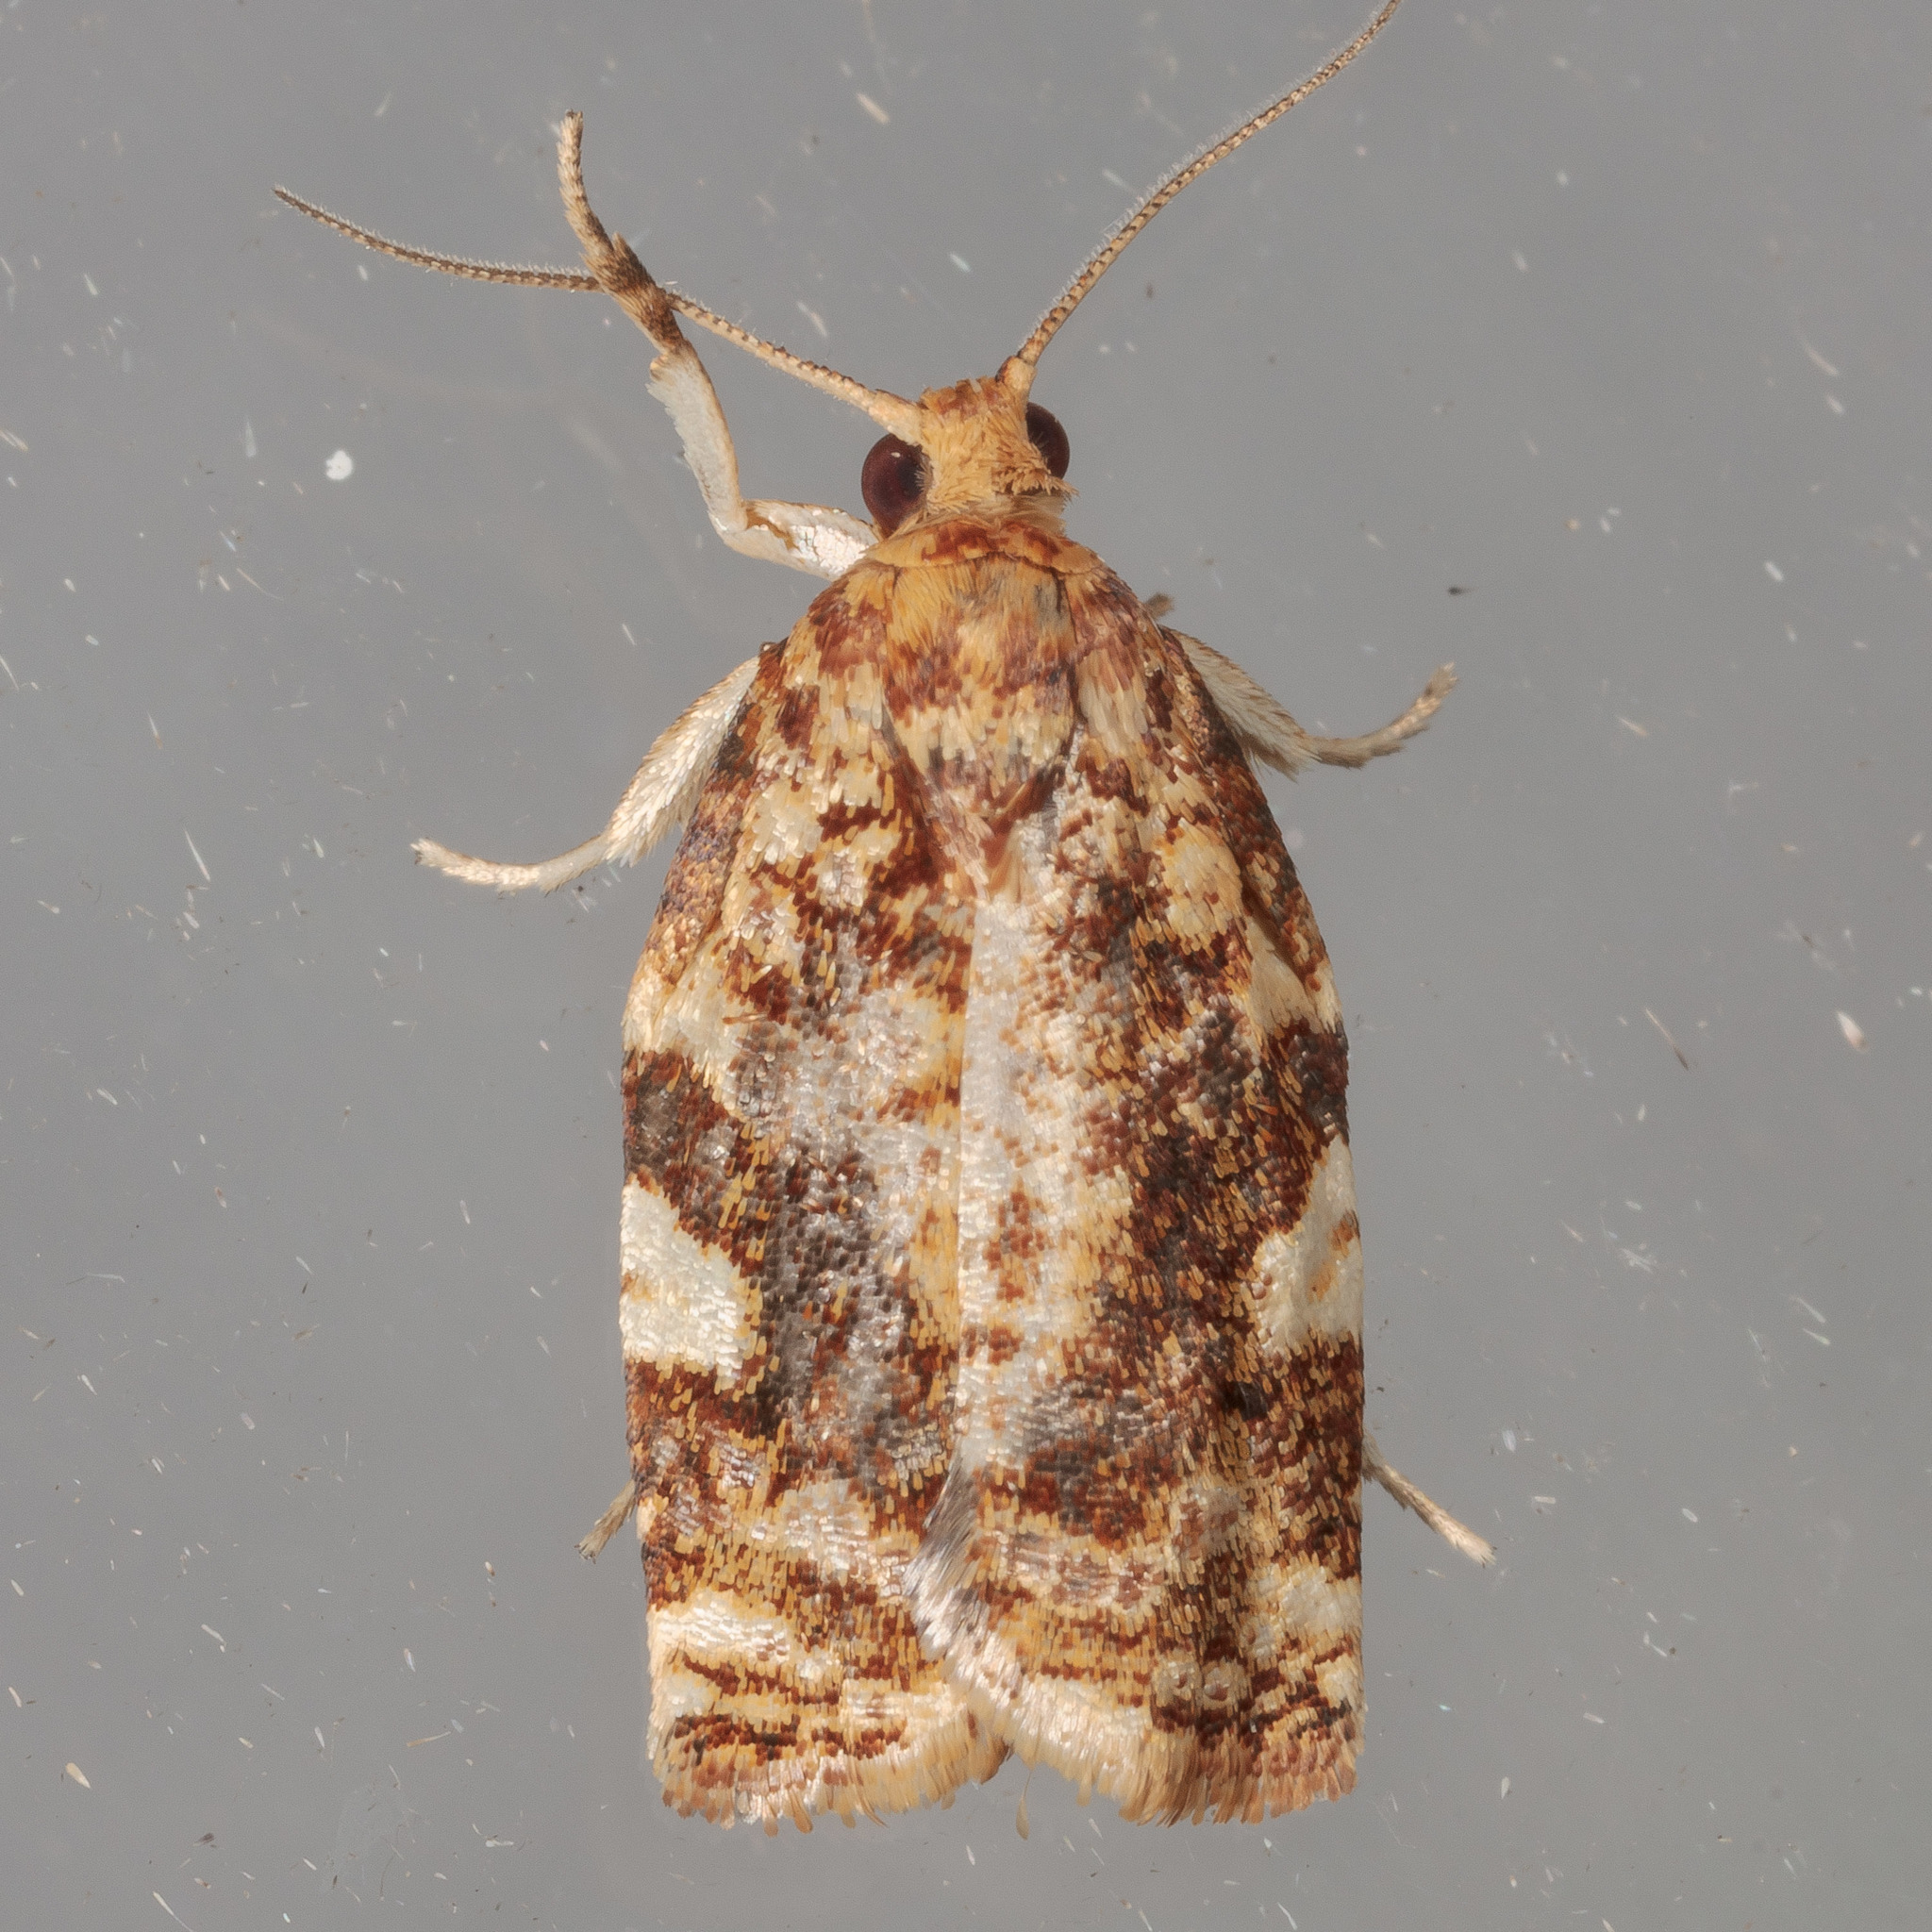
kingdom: Animalia
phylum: Arthropoda
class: Insecta
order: Lepidoptera
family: Tortricidae
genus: Archips
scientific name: Archips argyrospila
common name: Fruit-tree leafroller moth
